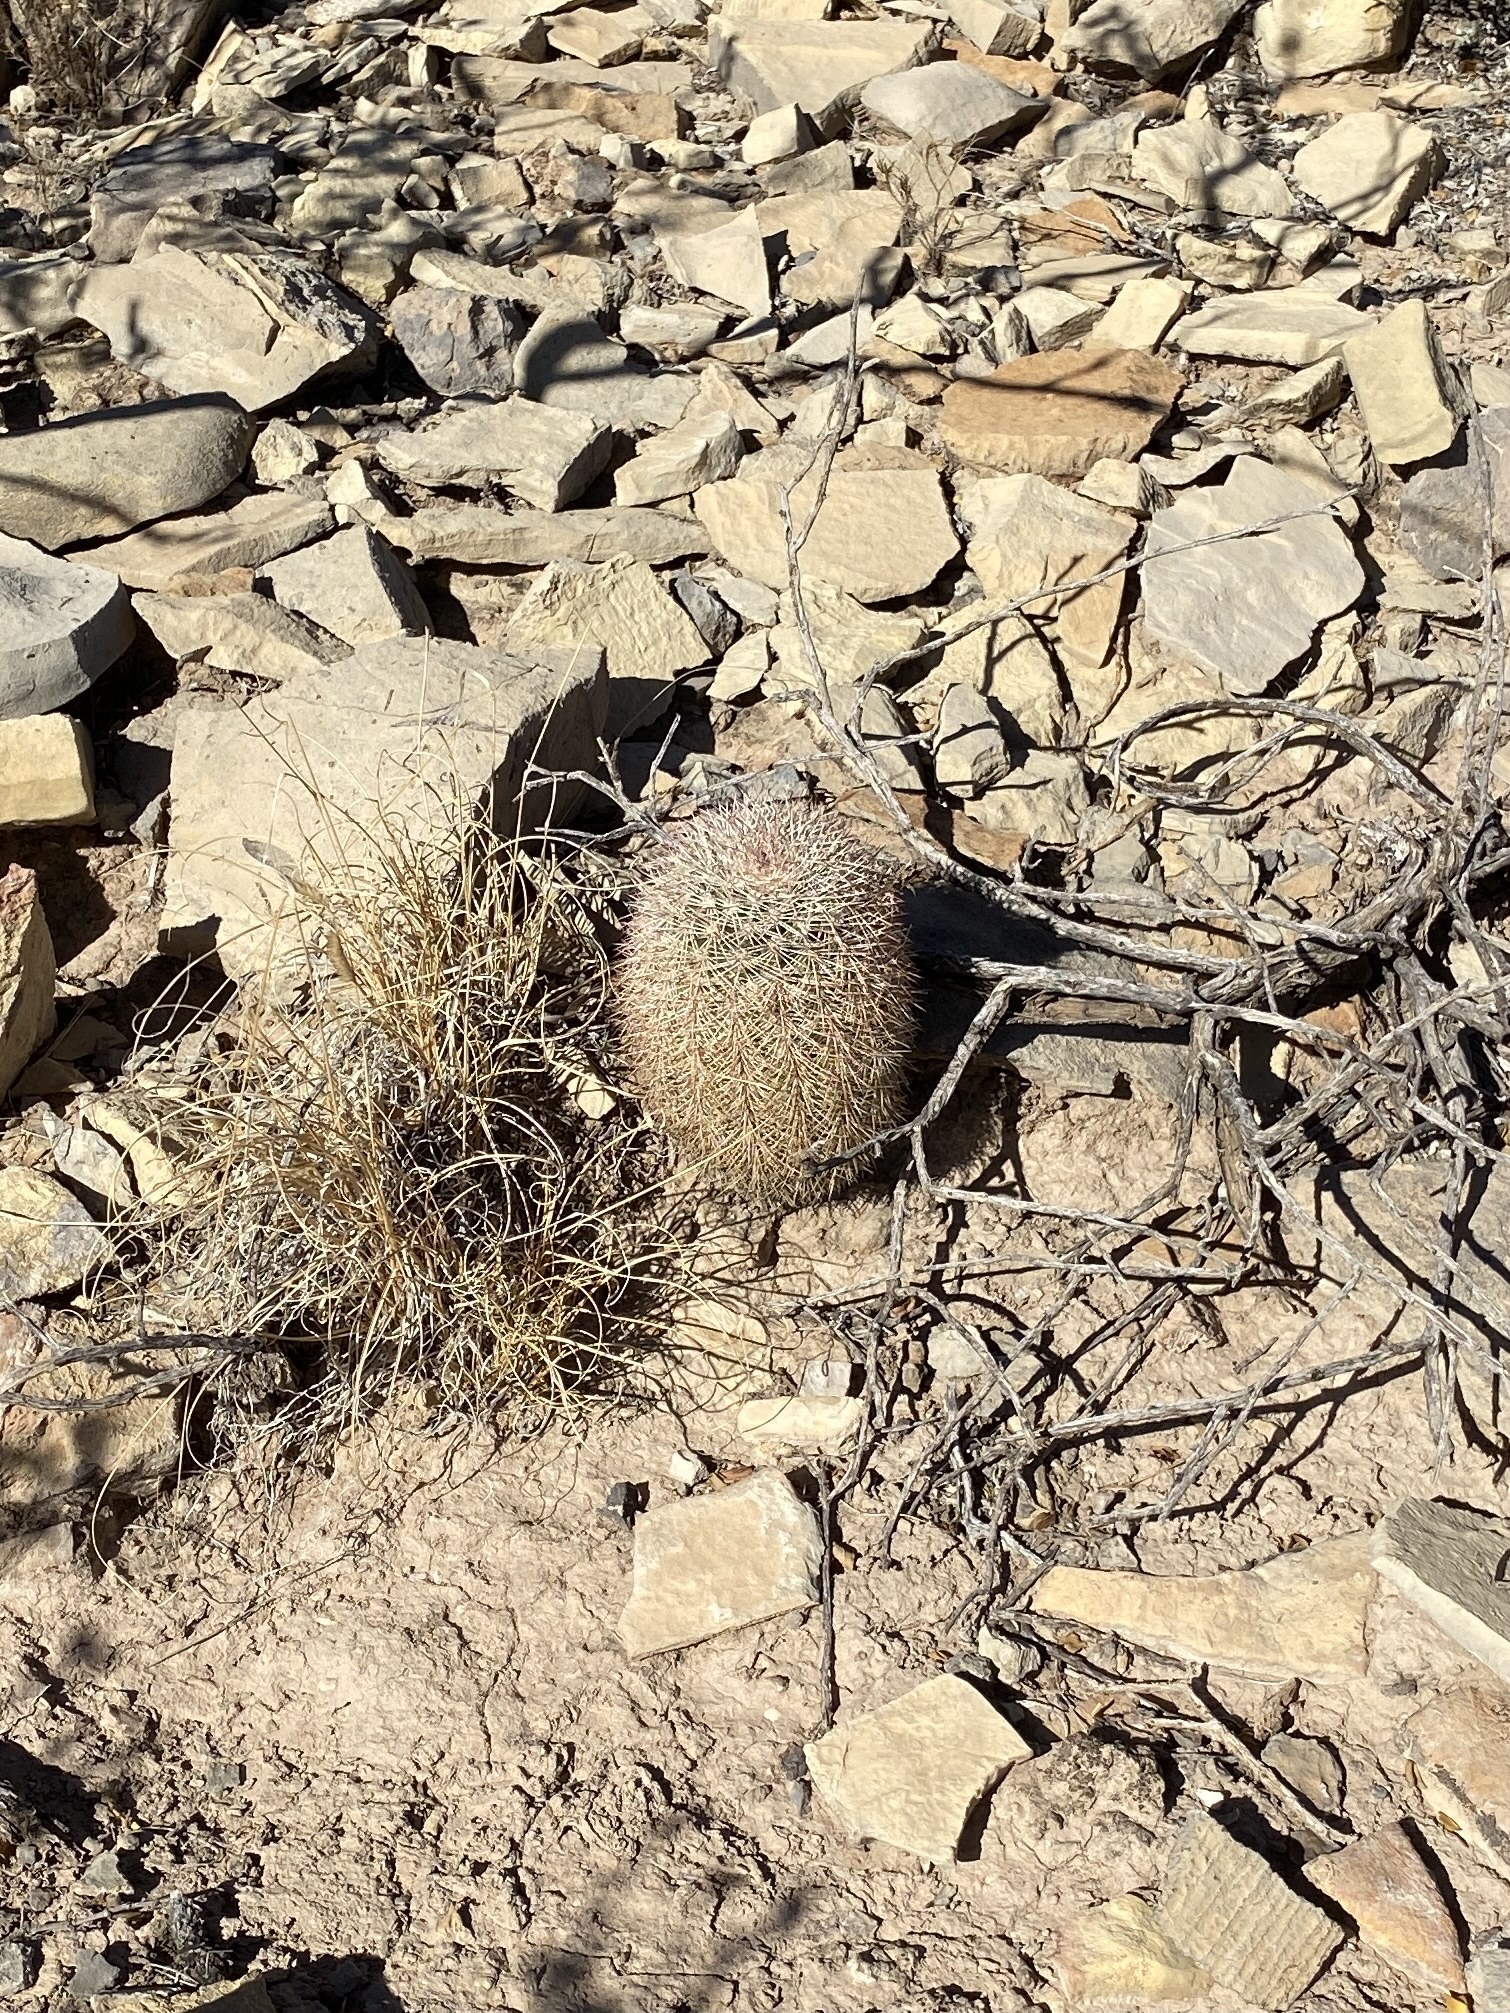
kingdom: Plantae
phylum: Tracheophyta
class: Magnoliopsida
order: Caryophyllales
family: Cactaceae
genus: Echinocereus
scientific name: Echinocereus dasyacanthus
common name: Spiny hedgehog cactus
